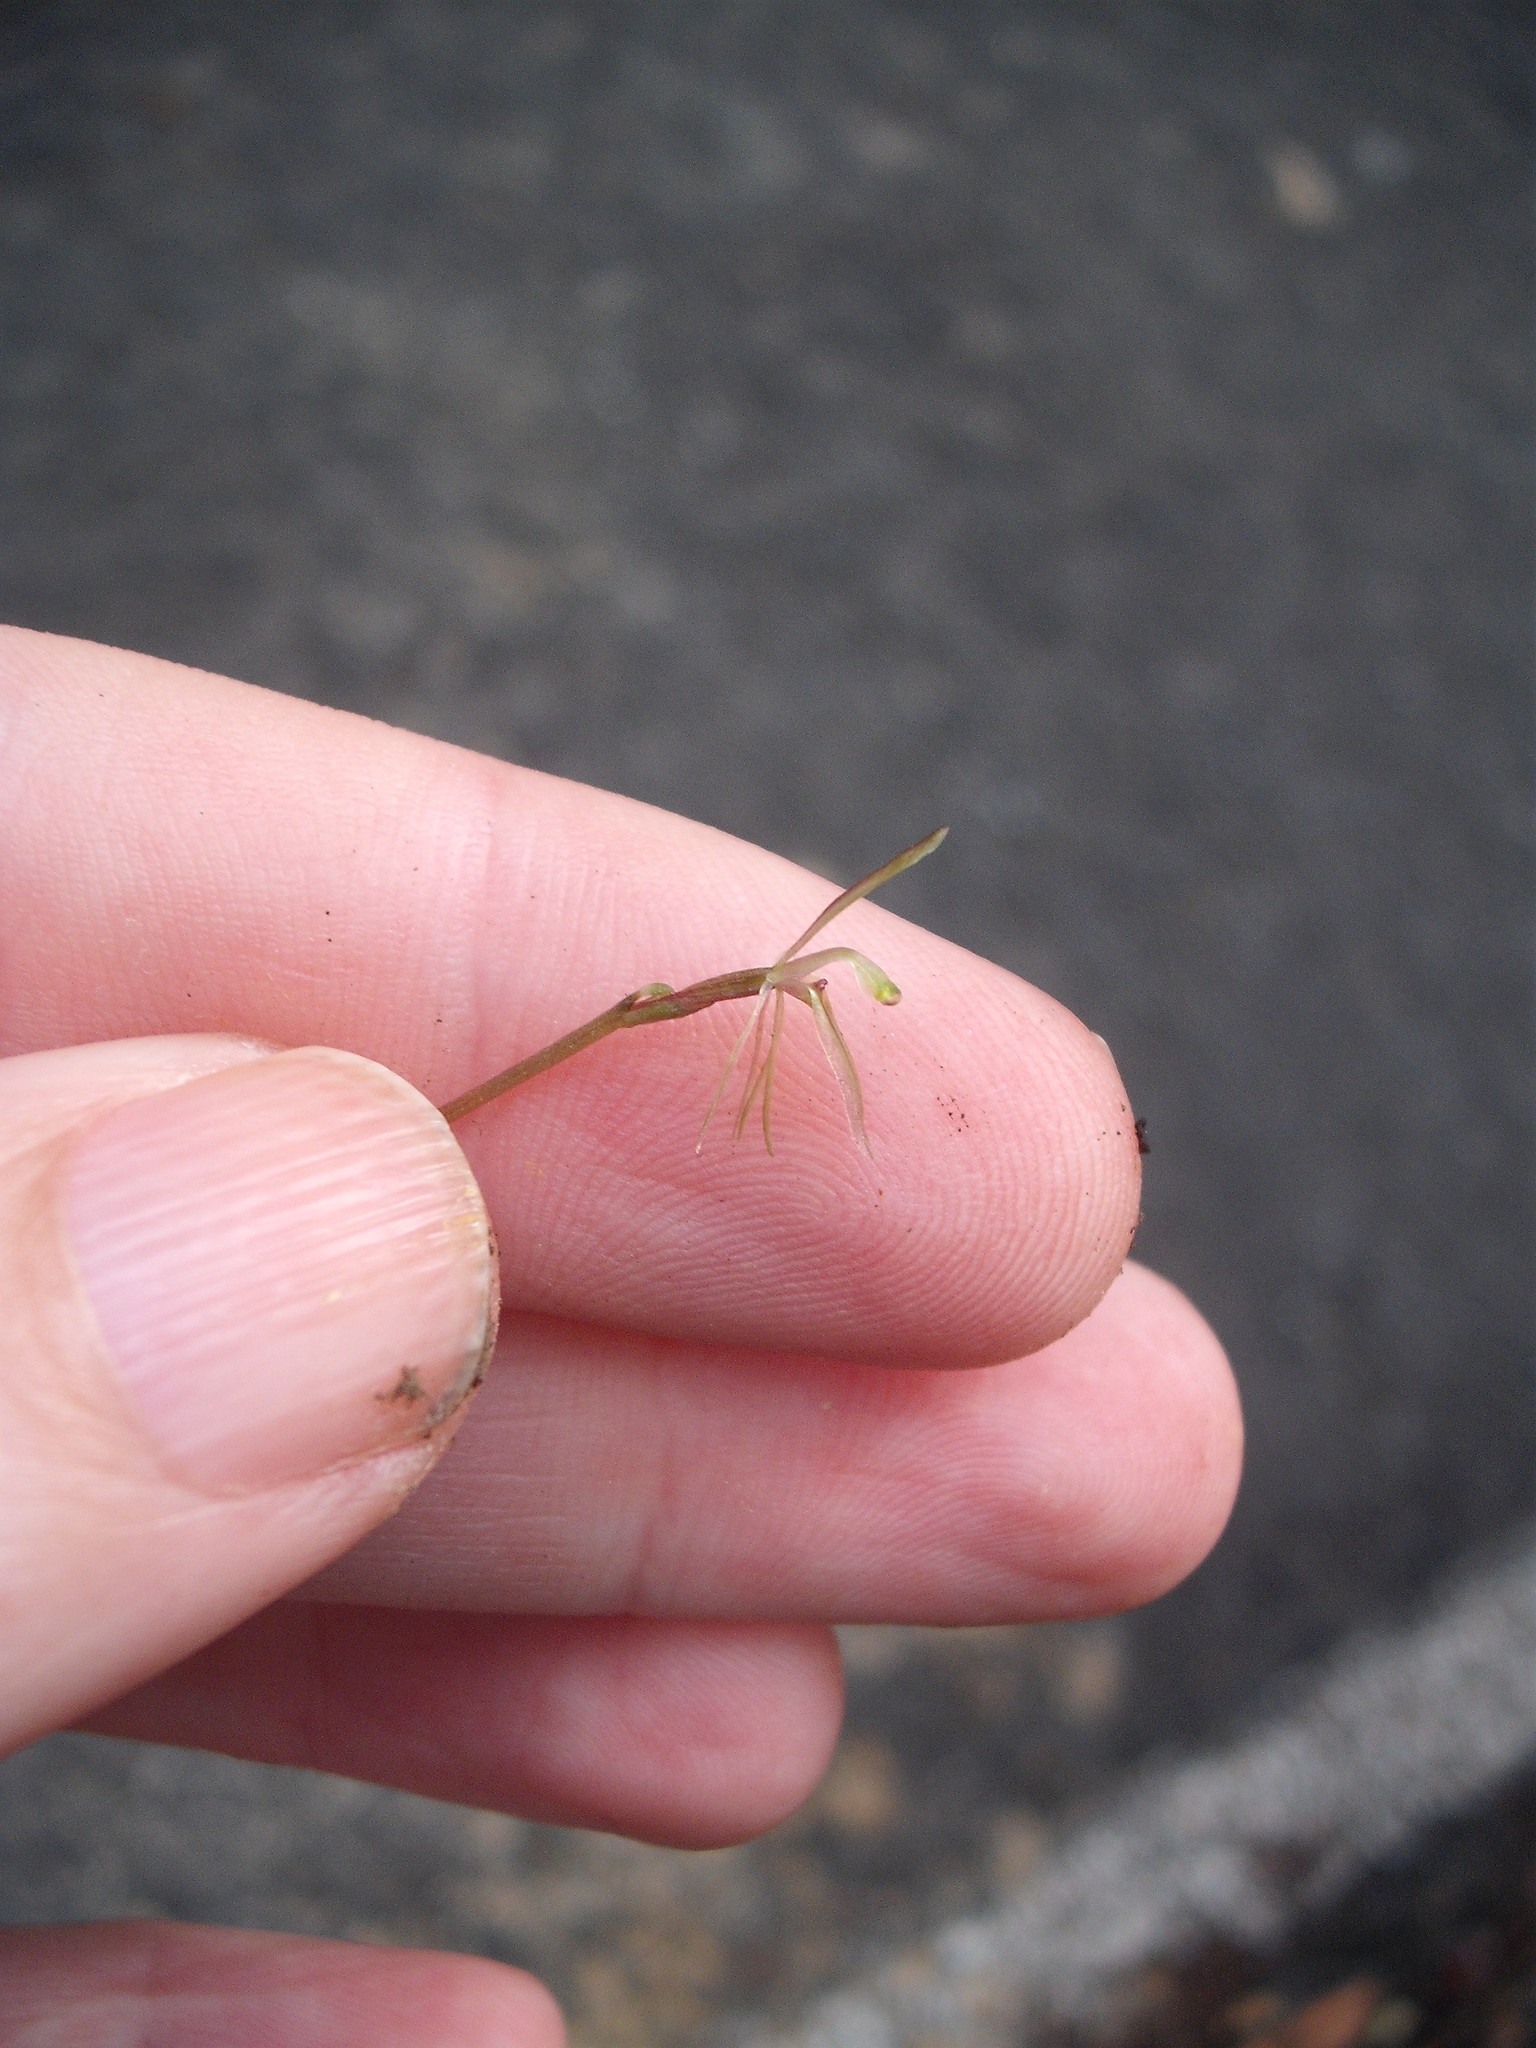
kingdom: Plantae
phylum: Tracheophyta
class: Liliopsida
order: Asparagales
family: Orchidaceae
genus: Cyrtostylis
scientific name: Cyrtostylis oblonga
